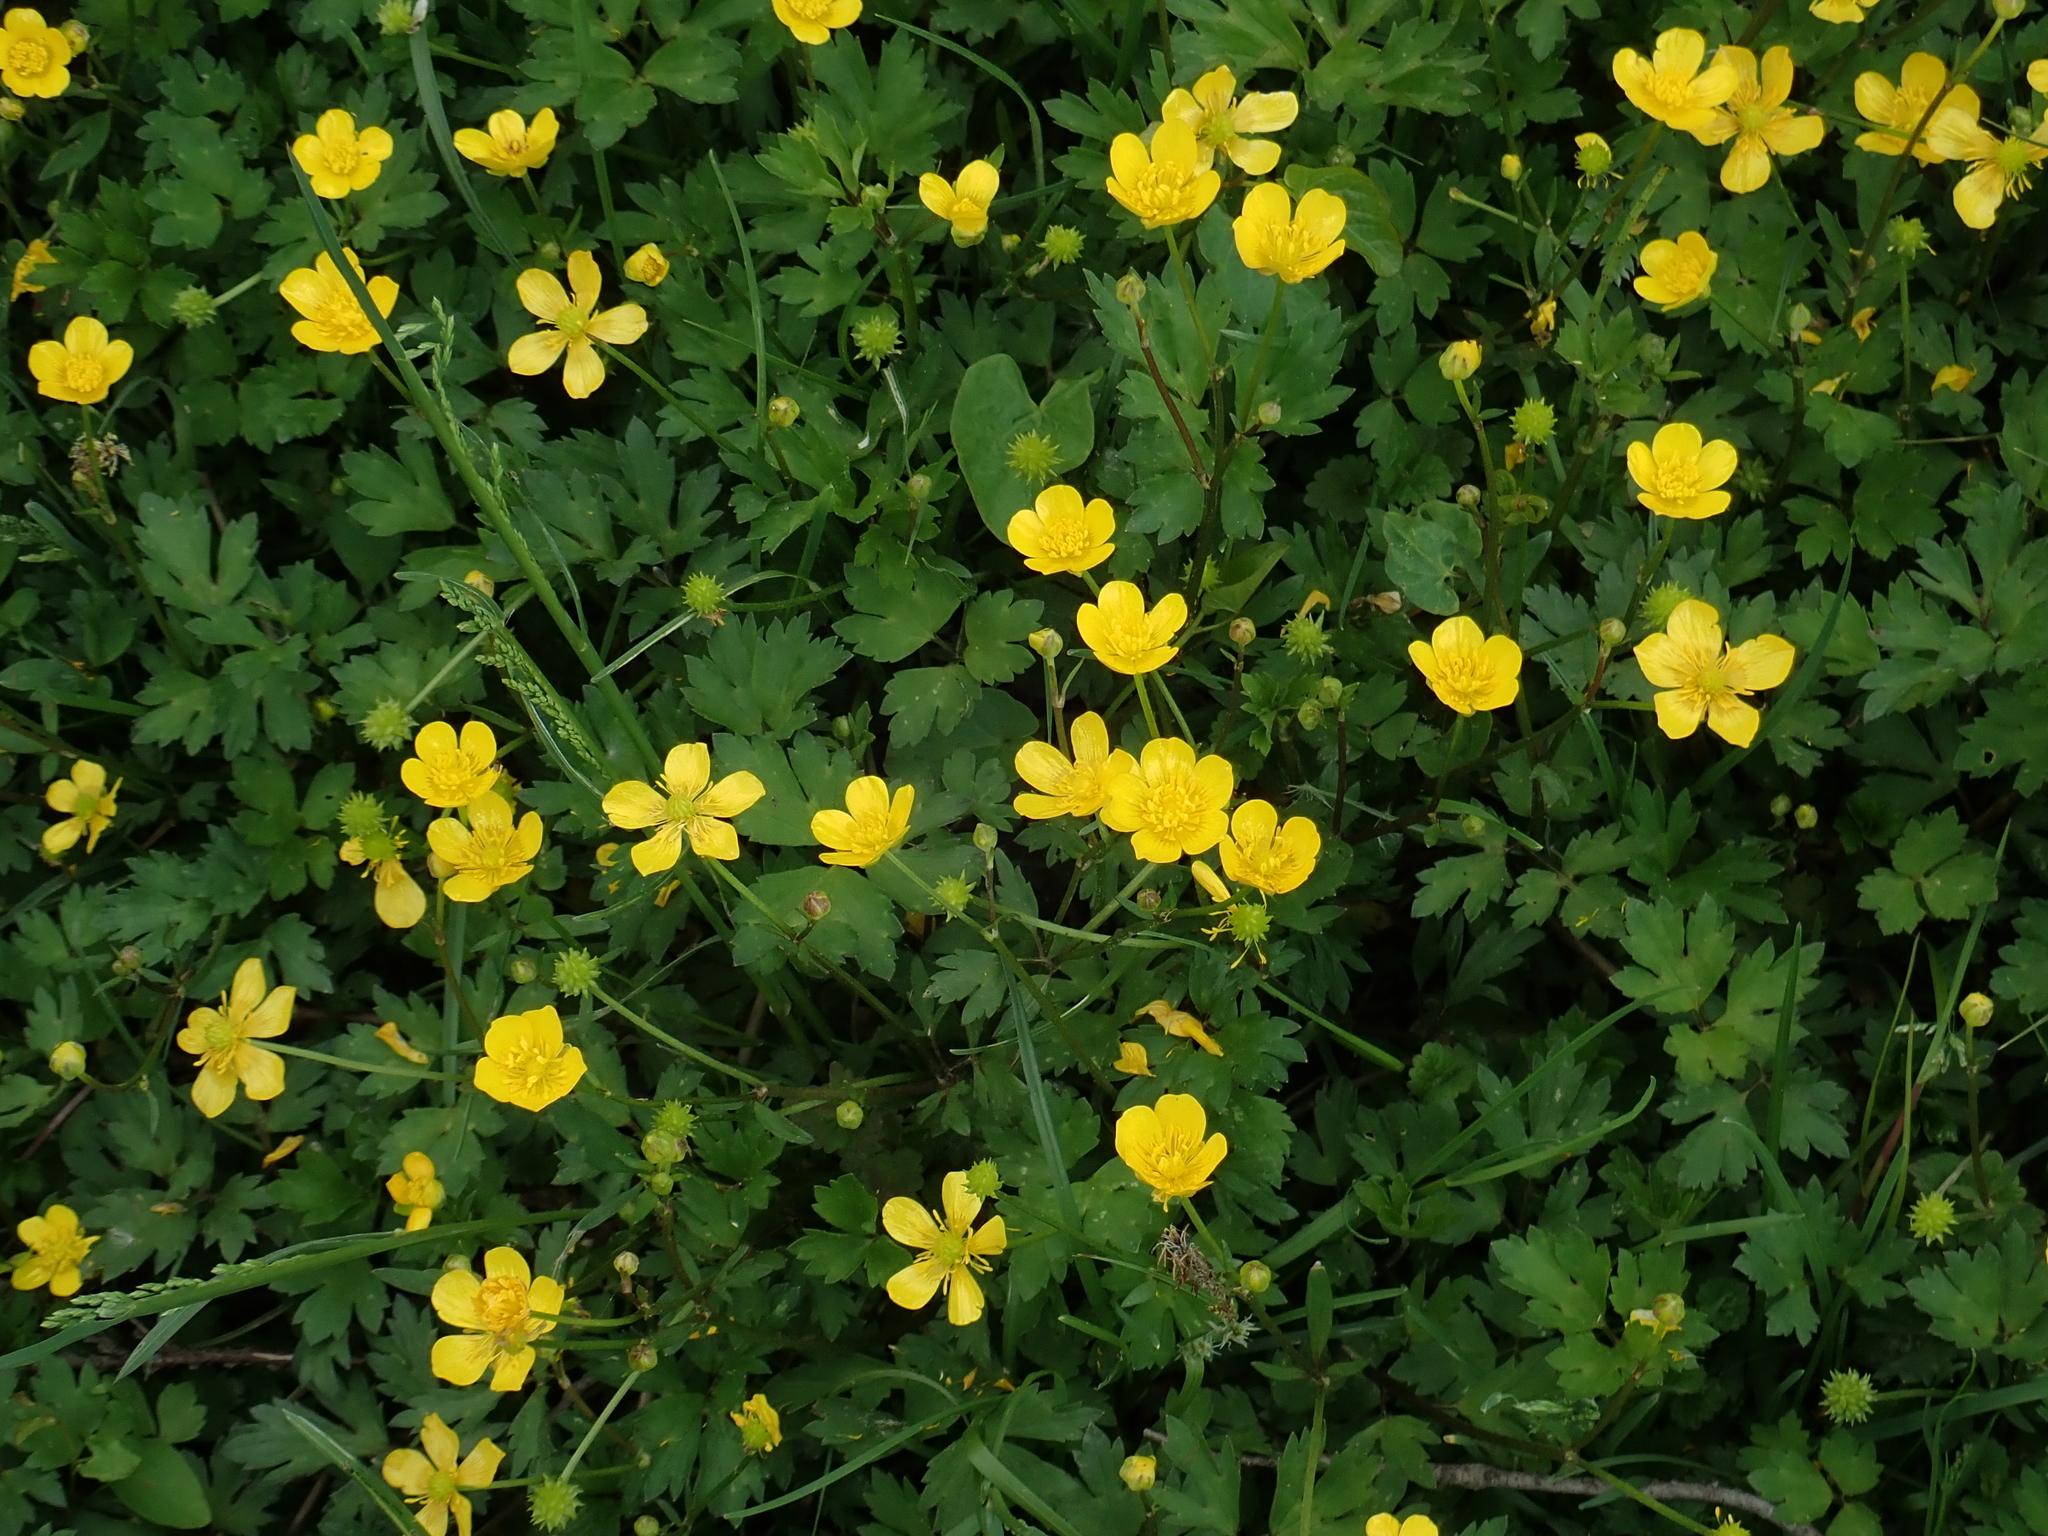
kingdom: Plantae
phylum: Tracheophyta
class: Magnoliopsida
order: Ranunculales
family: Ranunculaceae
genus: Ranunculus
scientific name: Ranunculus repens
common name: Creeping buttercup
